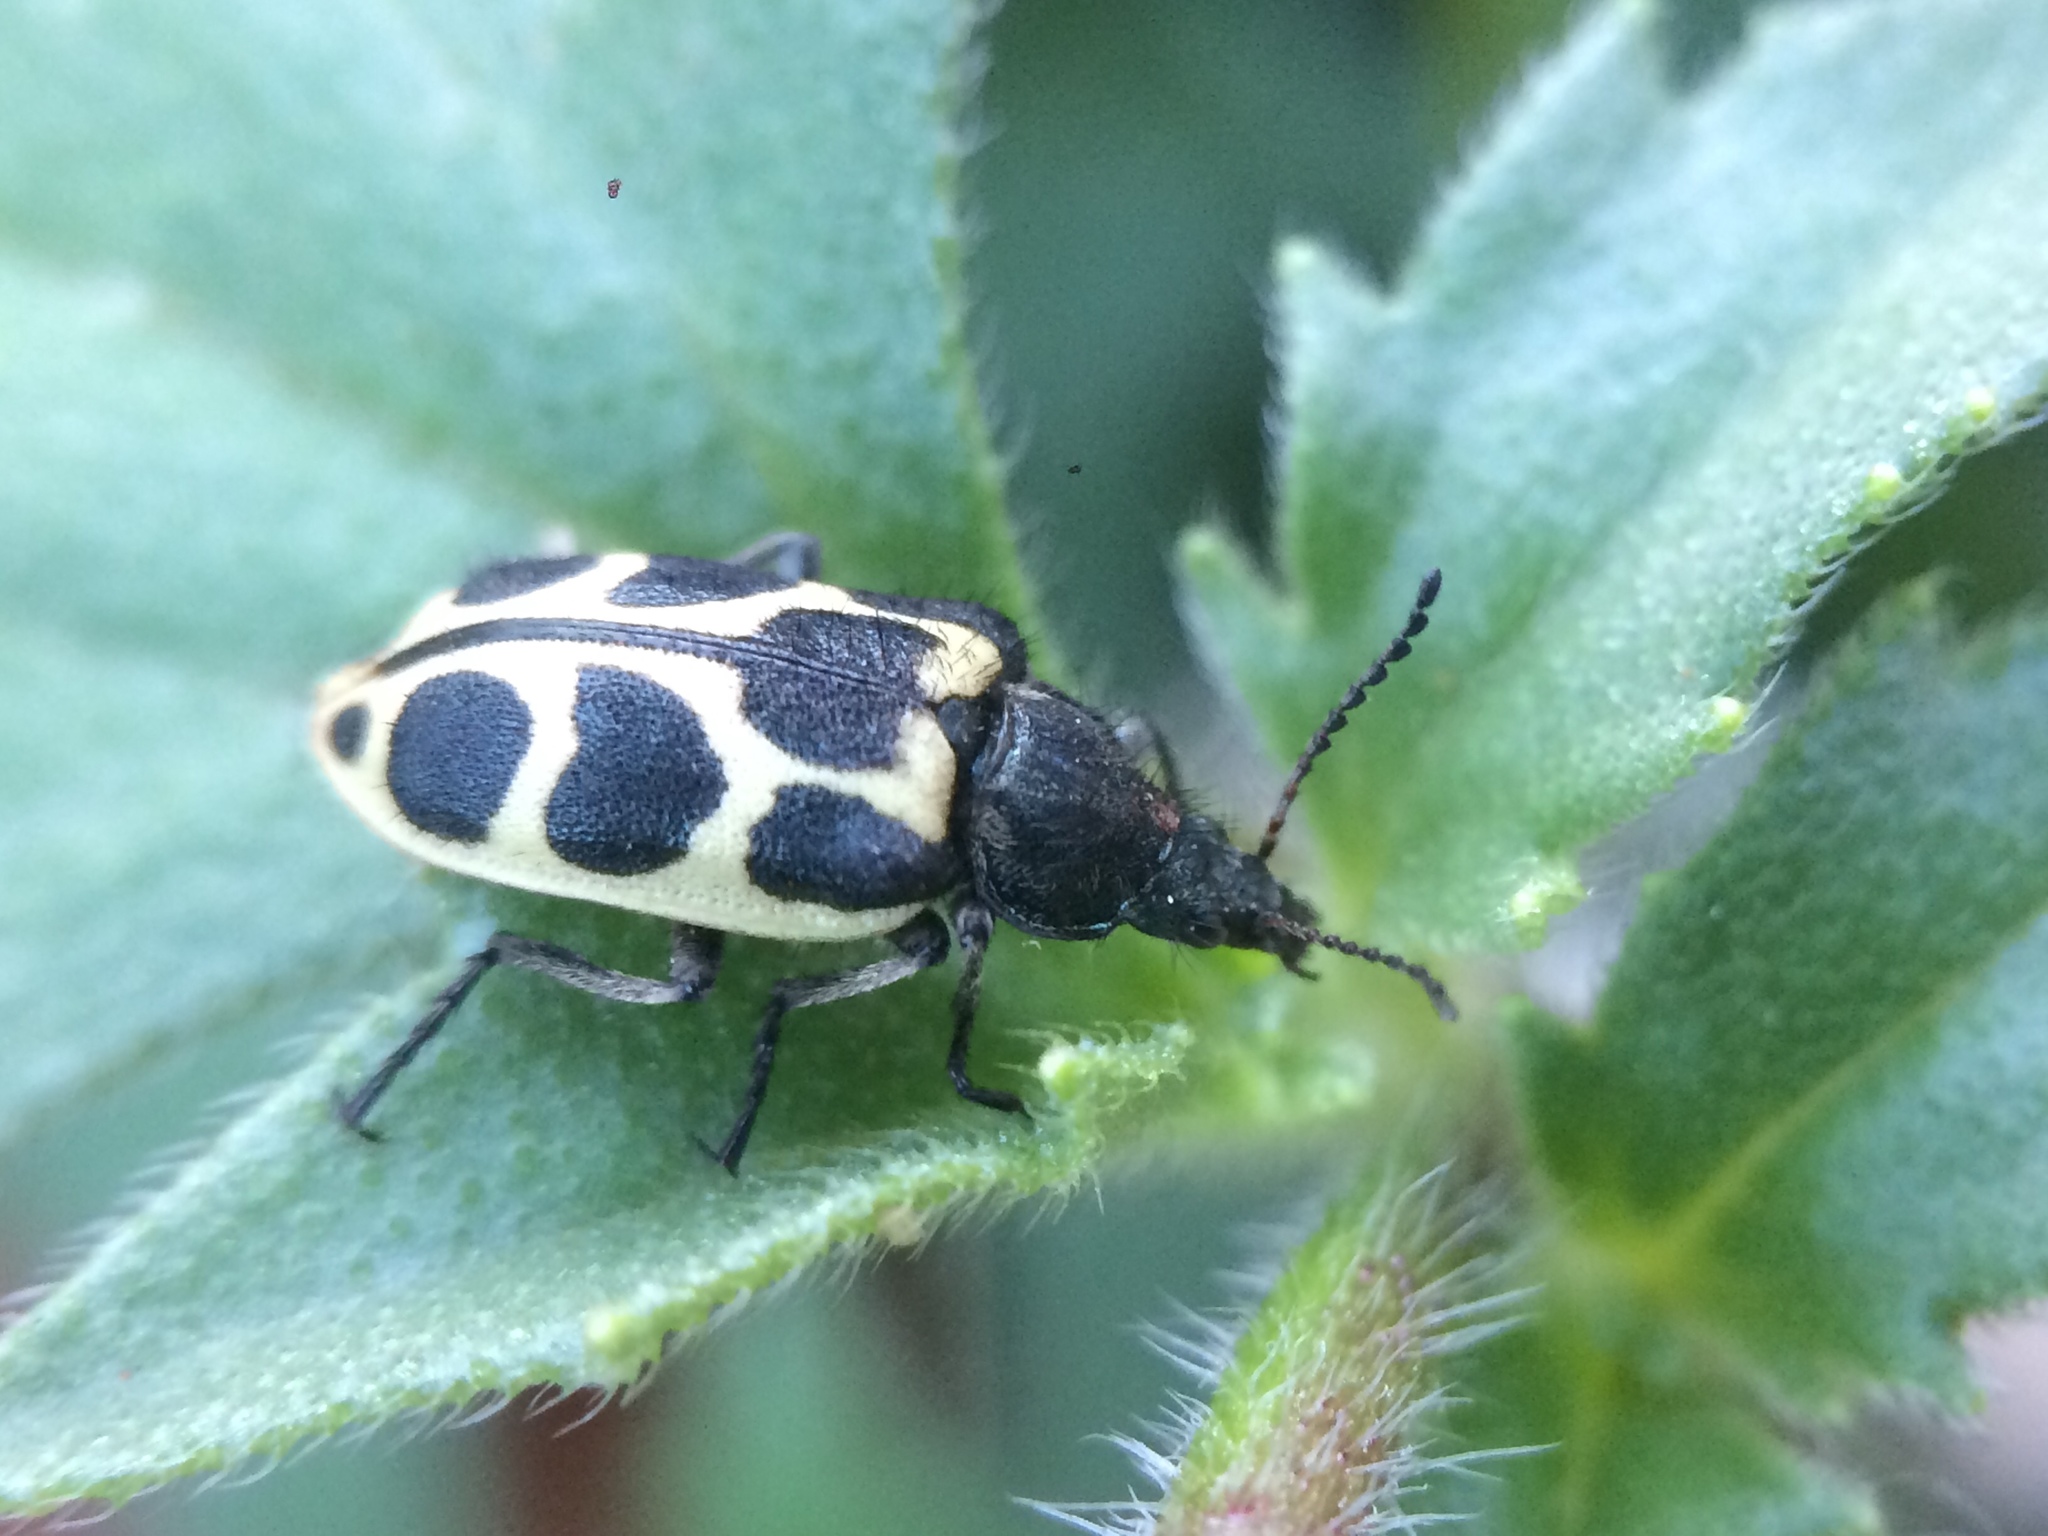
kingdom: Animalia
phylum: Arthropoda
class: Insecta
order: Coleoptera
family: Melyridae
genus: Astylus
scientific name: Astylus
